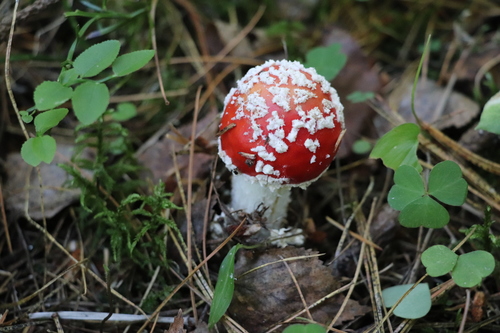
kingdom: Fungi
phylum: Basidiomycota
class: Agaricomycetes
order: Agaricales
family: Amanitaceae
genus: Amanita
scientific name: Amanita muscaria
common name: Fly agaric
